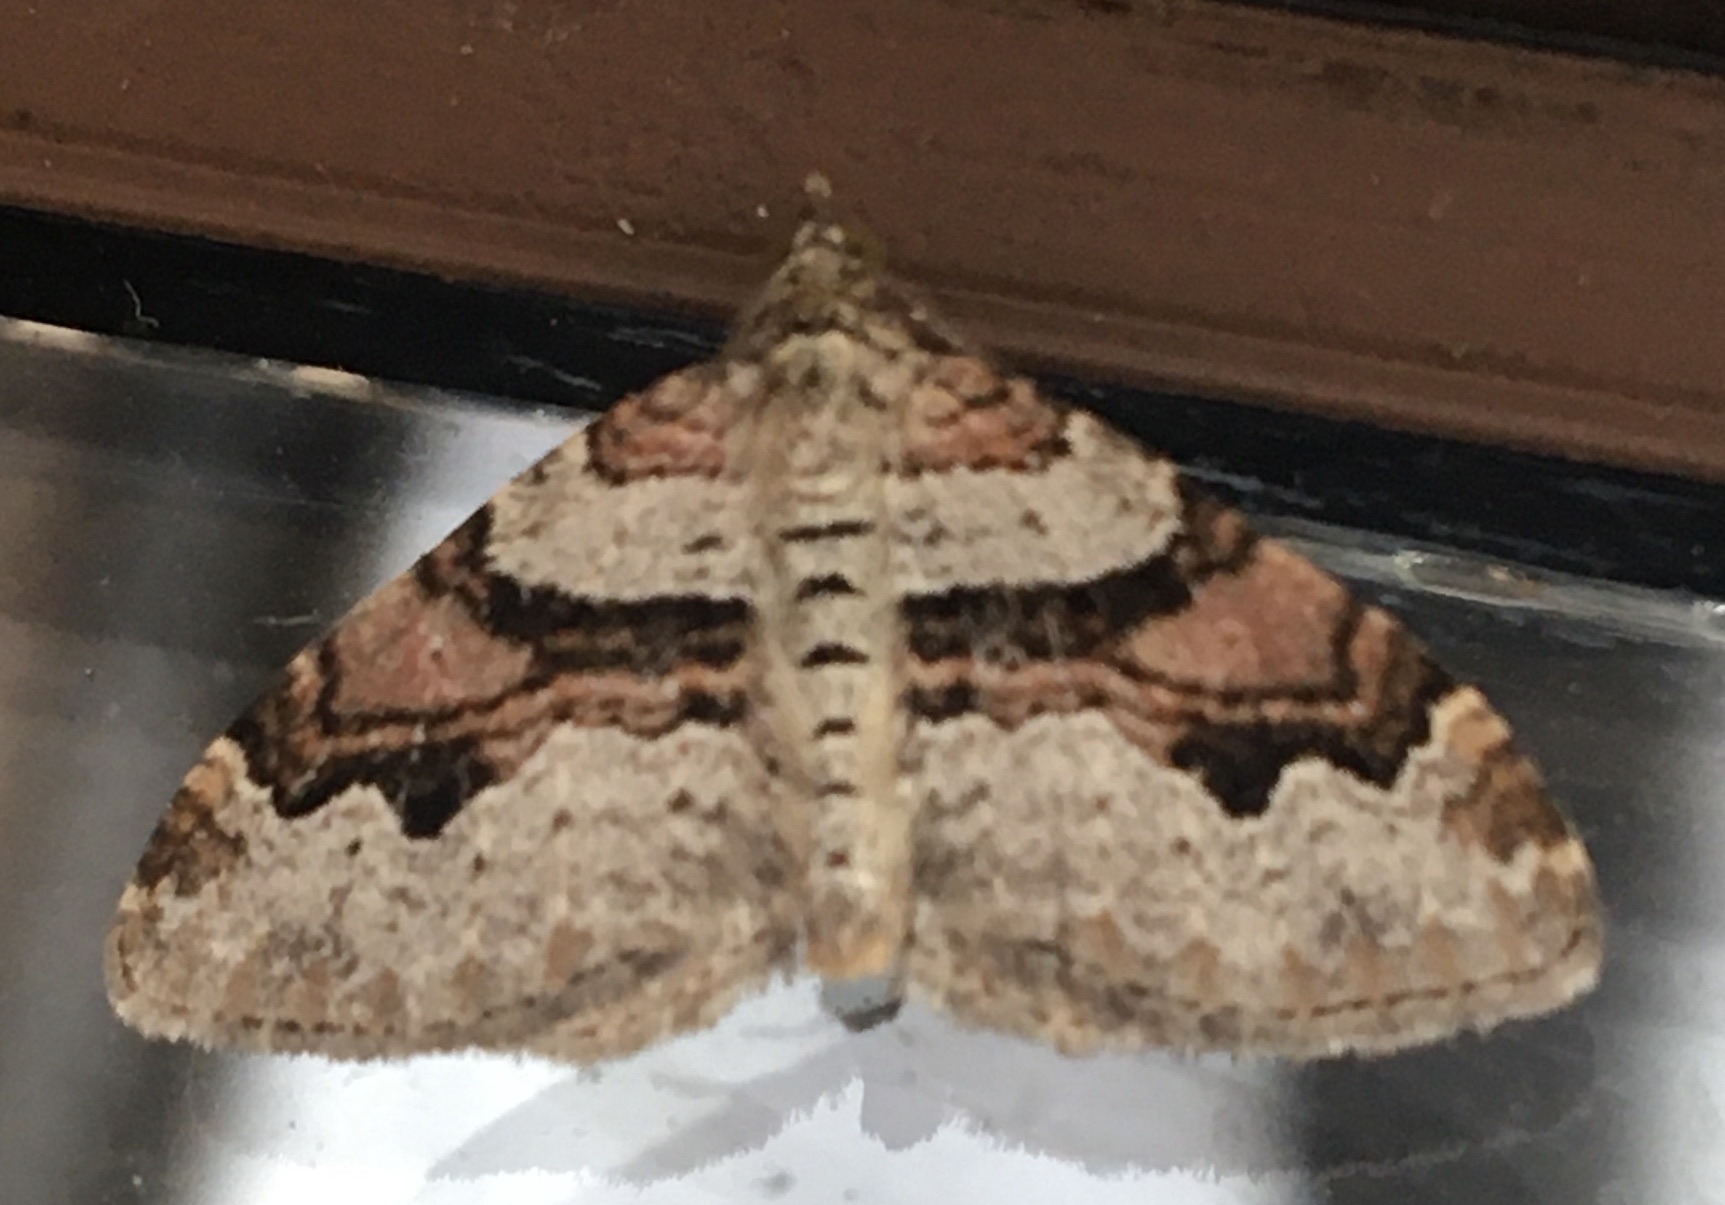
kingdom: Animalia
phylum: Arthropoda
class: Insecta
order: Lepidoptera
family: Geometridae
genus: Xanthorhoe
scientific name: Xanthorhoe designata
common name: Flame carpet
